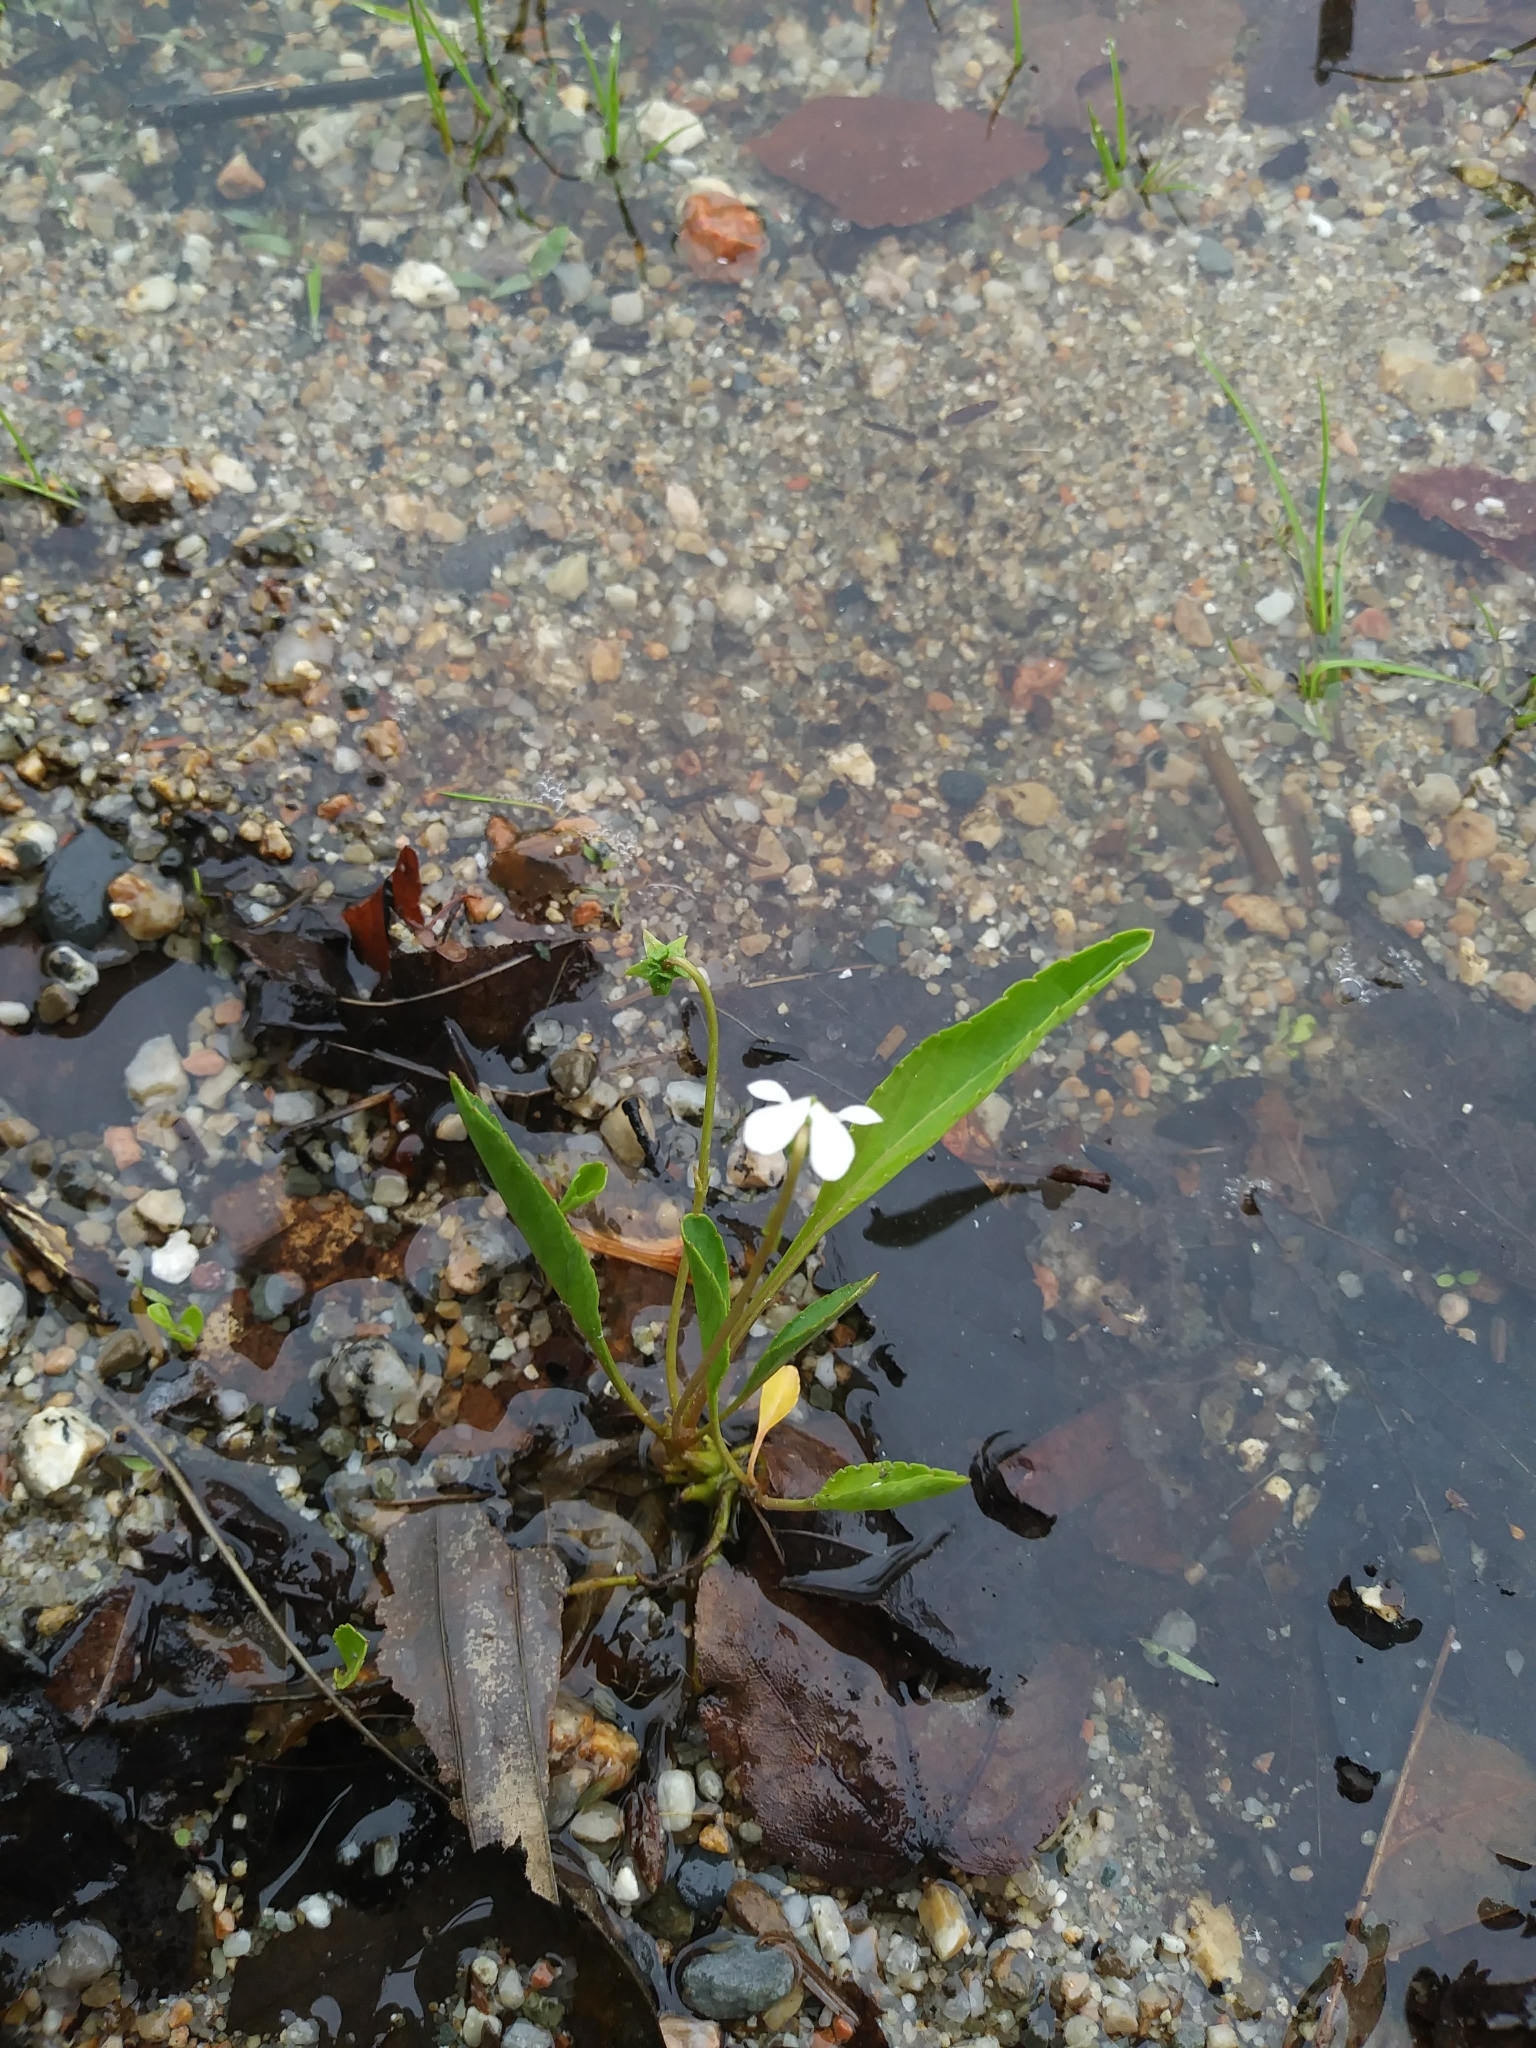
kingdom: Plantae
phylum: Tracheophyta
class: Magnoliopsida
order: Malpighiales
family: Violaceae
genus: Viola
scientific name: Viola lanceolata
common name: Bog white violet
